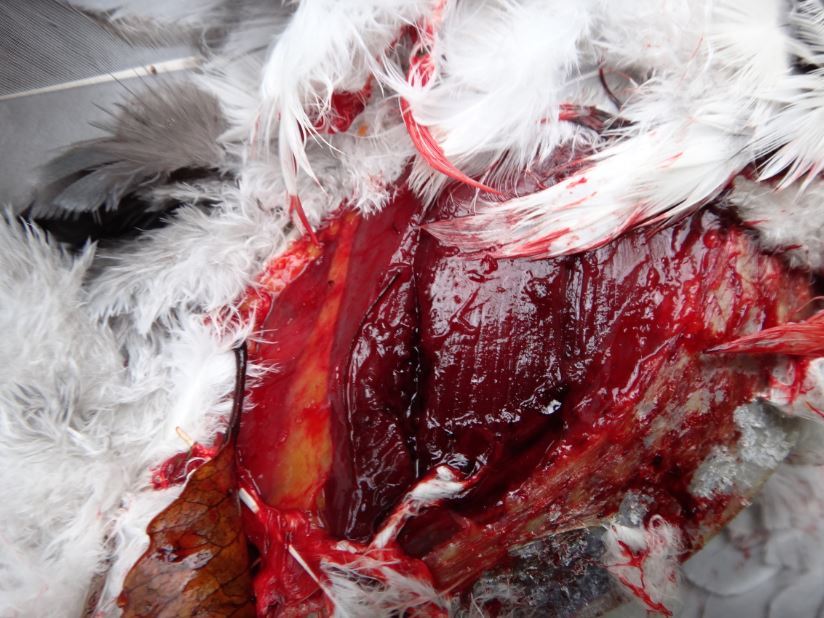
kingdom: Animalia
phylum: Chordata
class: Aves
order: Columbiformes
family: Columbidae
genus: Hemiphaga
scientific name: Hemiphaga novaeseelandiae
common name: New zealand pigeon
